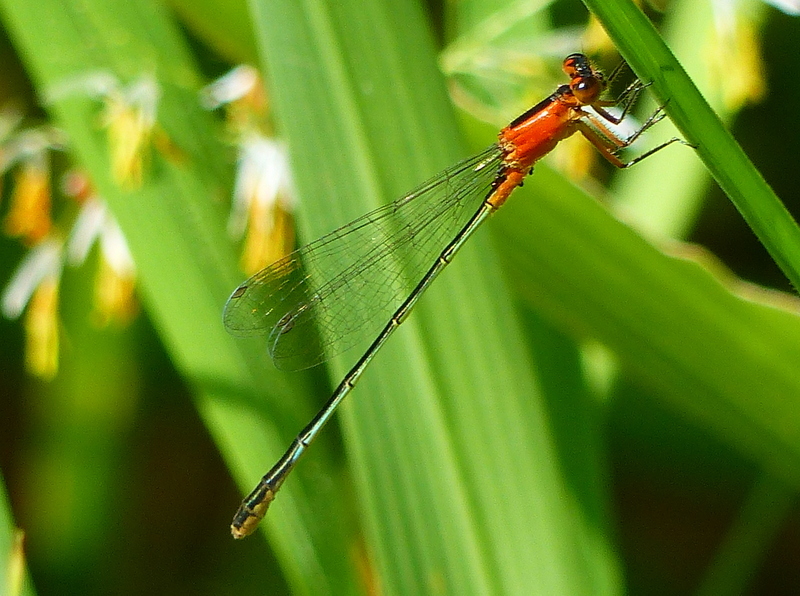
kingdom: Animalia
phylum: Arthropoda
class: Insecta
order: Odonata
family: Coenagrionidae
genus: Ischnura
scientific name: Ischnura ramburii
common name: Rambur's forktail
